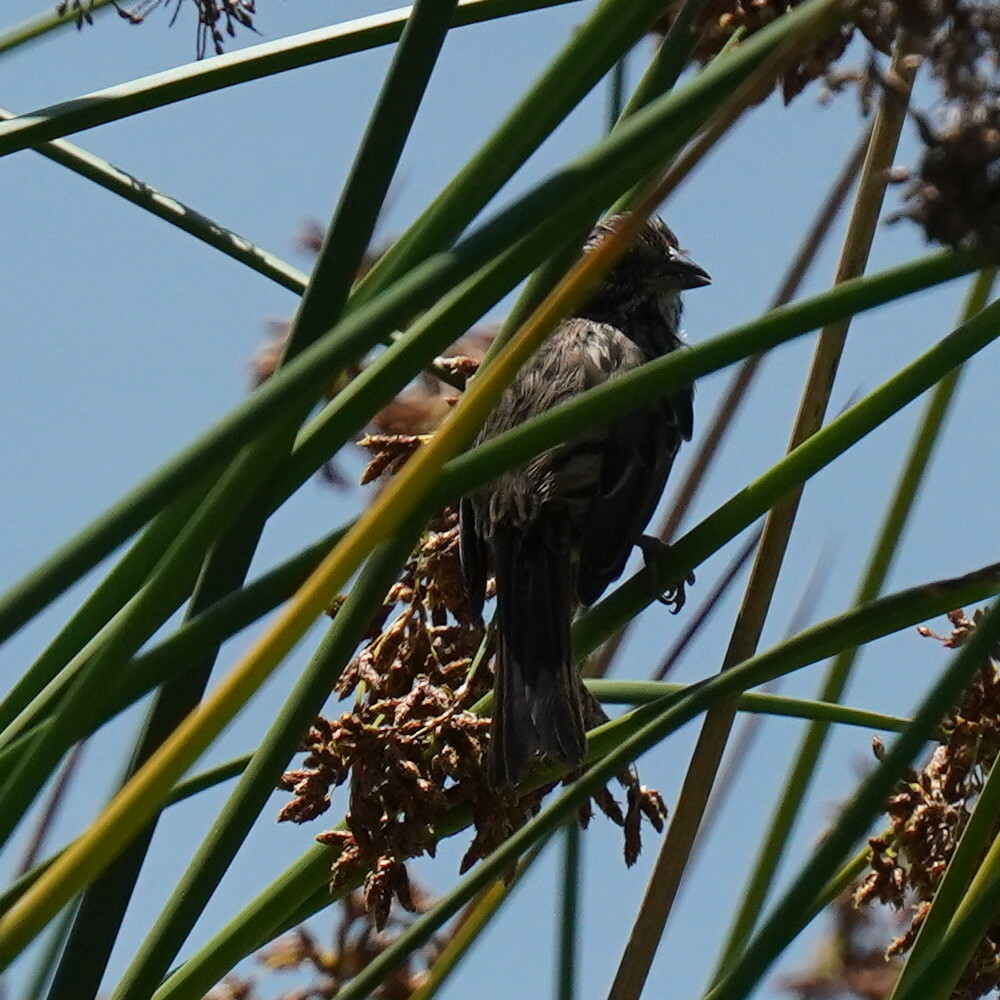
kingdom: Animalia
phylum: Chordata
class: Aves
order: Passeriformes
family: Passerellidae
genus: Melospiza
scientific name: Melospiza melodia
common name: Song sparrow
